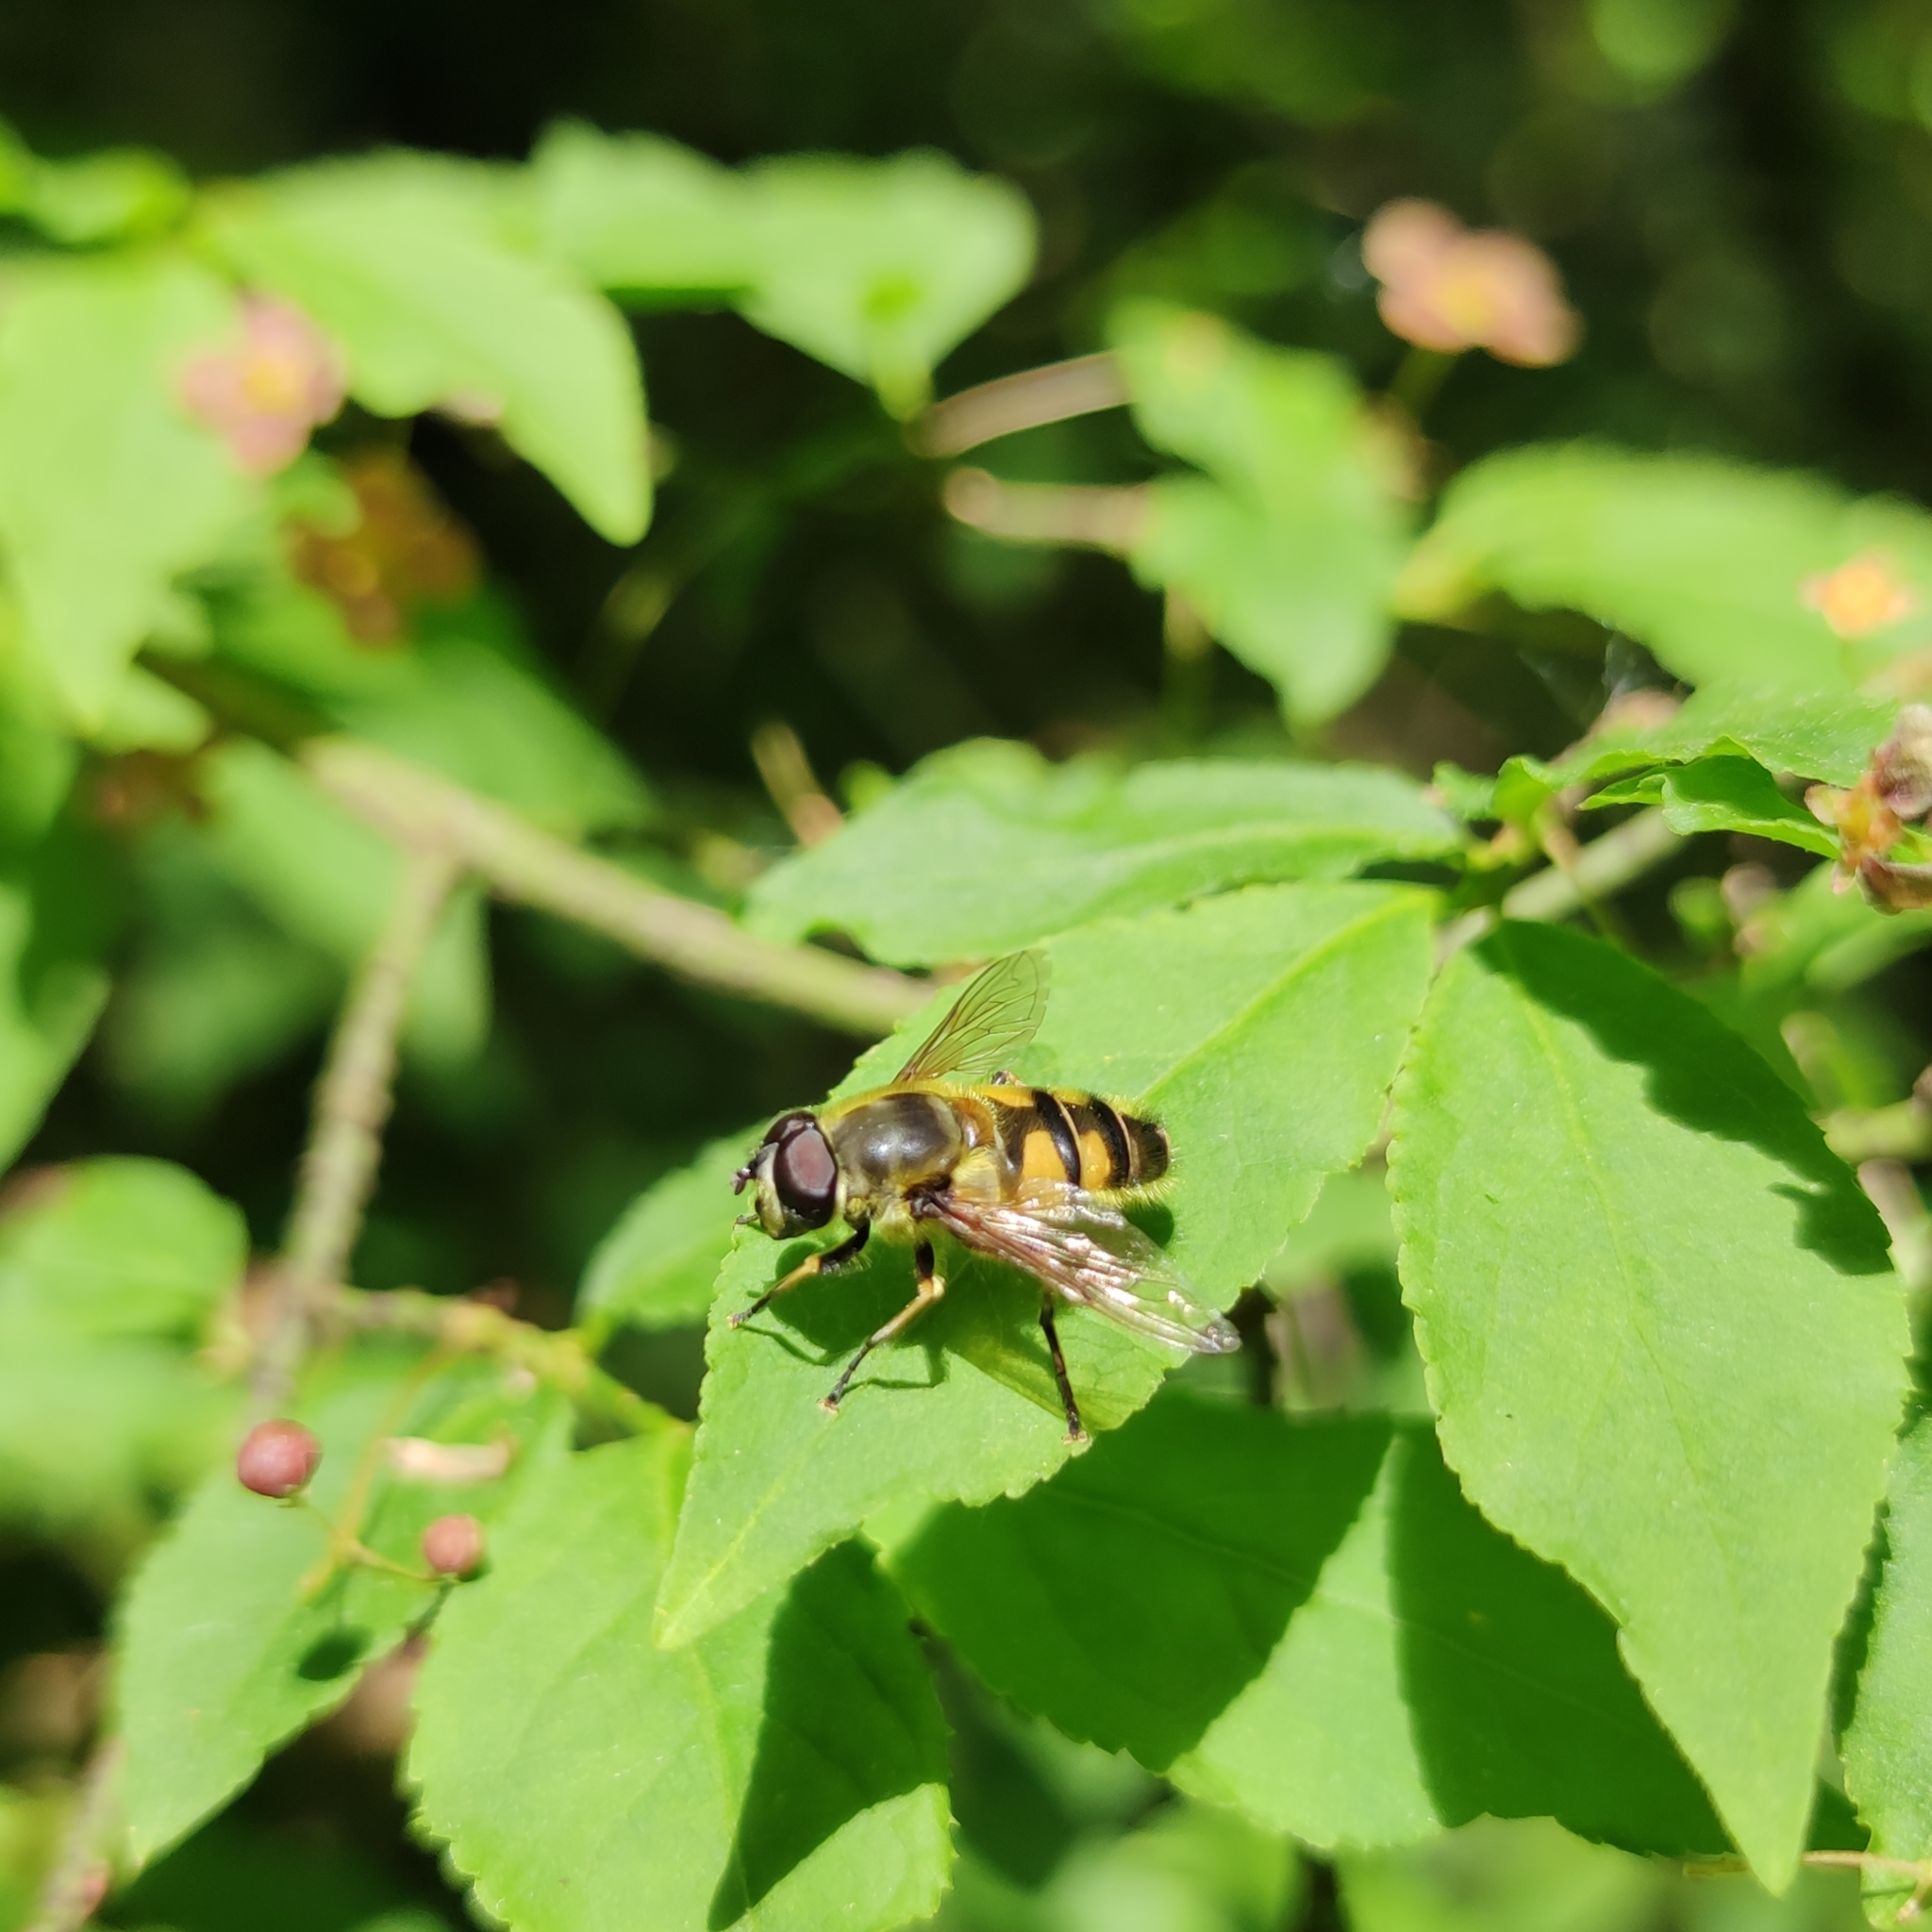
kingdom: Animalia
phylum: Arthropoda
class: Insecta
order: Diptera
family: Syrphidae
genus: Myathropa
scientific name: Myathropa florea
